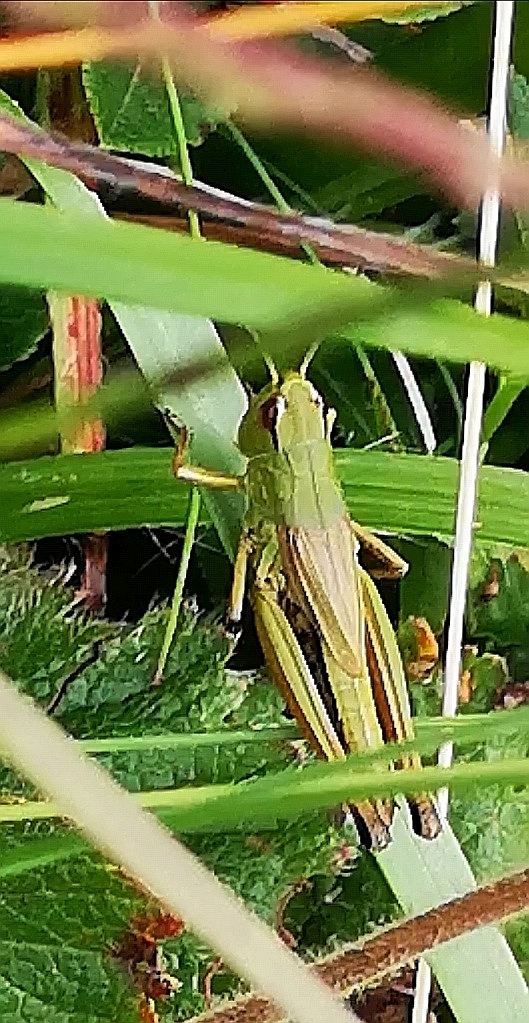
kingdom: Animalia
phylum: Arthropoda
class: Insecta
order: Orthoptera
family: Acrididae
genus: Pseudochorthippus
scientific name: Pseudochorthippus parallelus
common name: Meadow grasshopper
